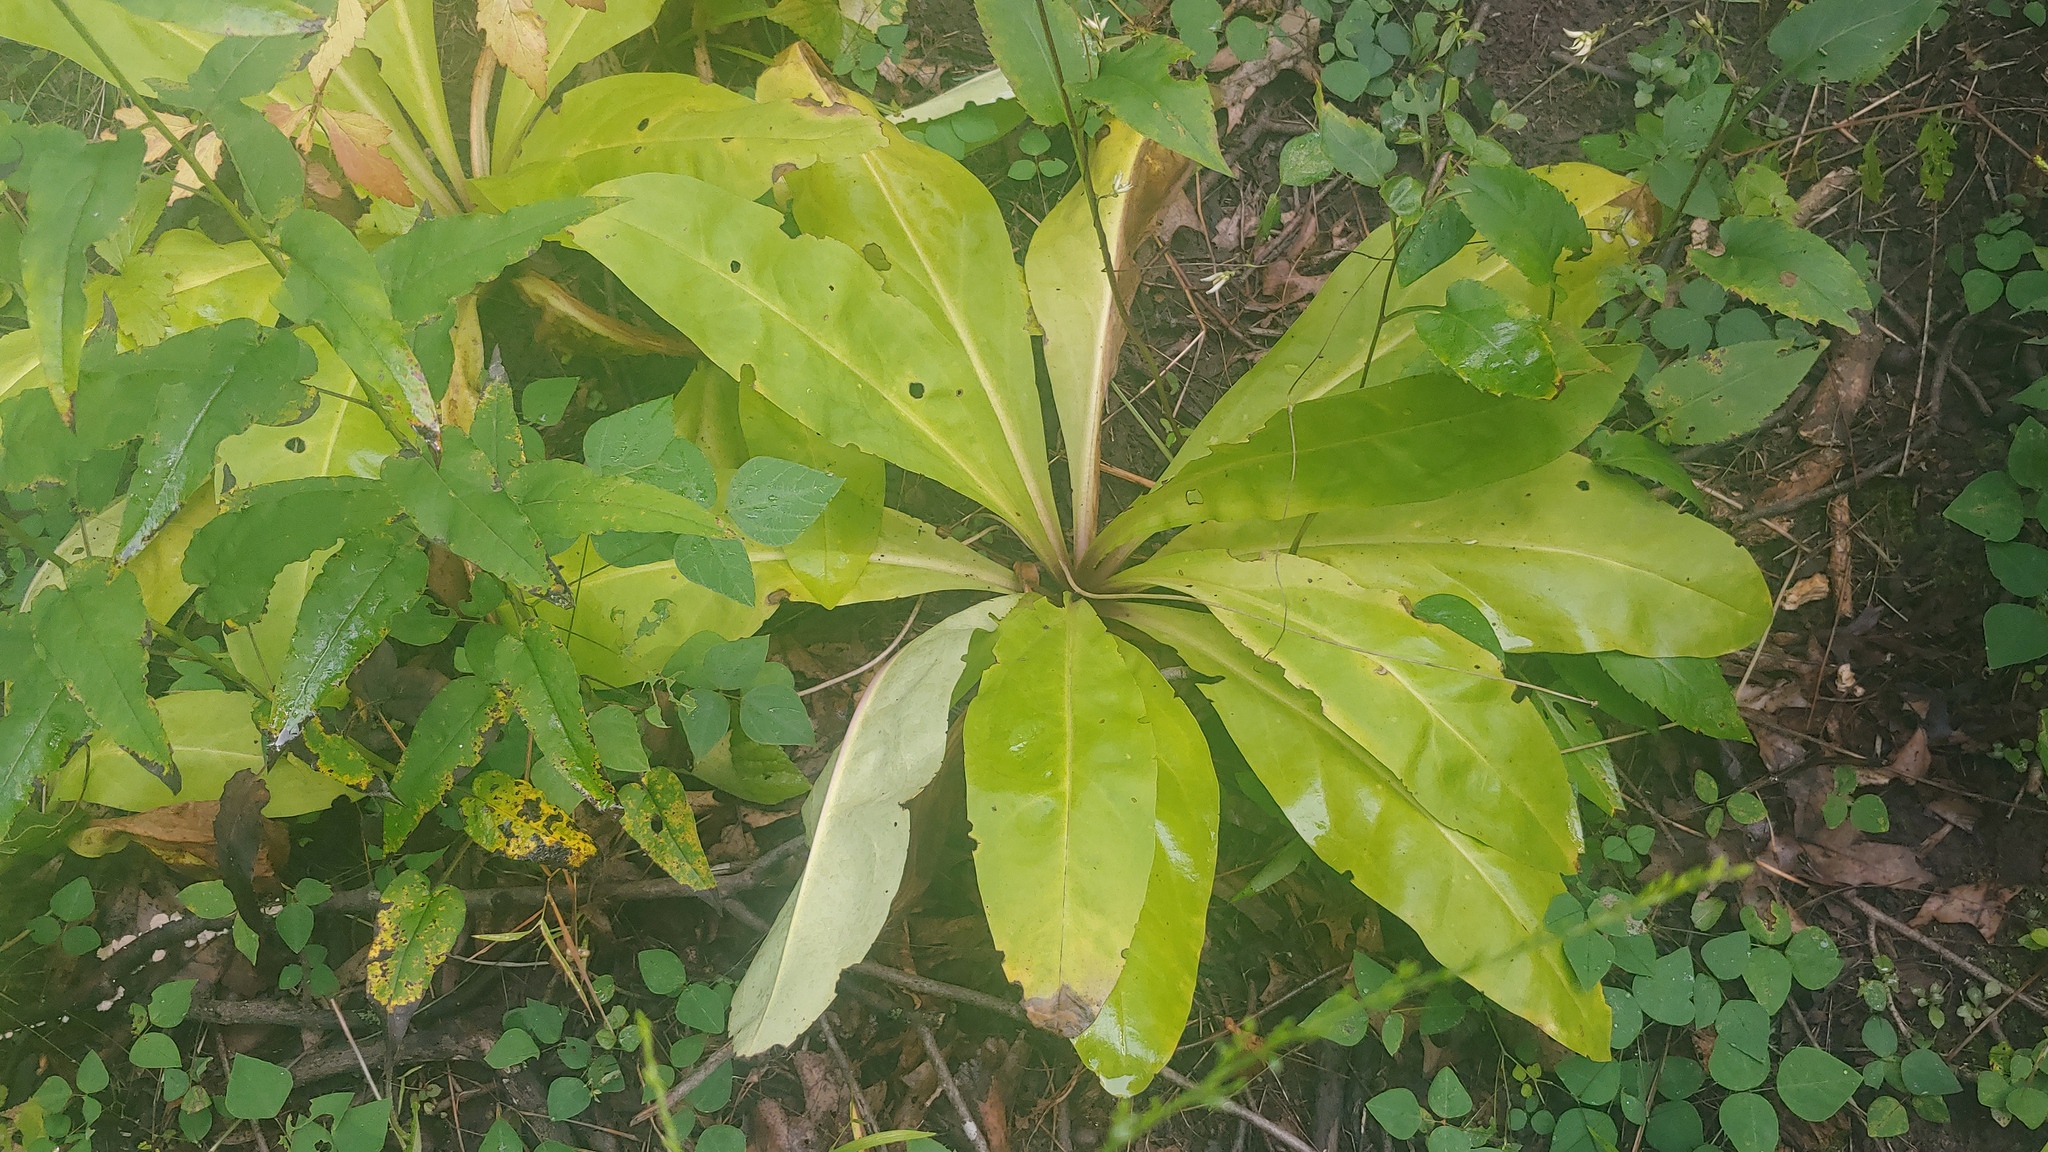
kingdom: Plantae
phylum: Tracheophyta
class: Magnoliopsida
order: Gentianales
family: Gentianaceae
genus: Frasera
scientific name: Frasera caroliniensis
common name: American columbo
